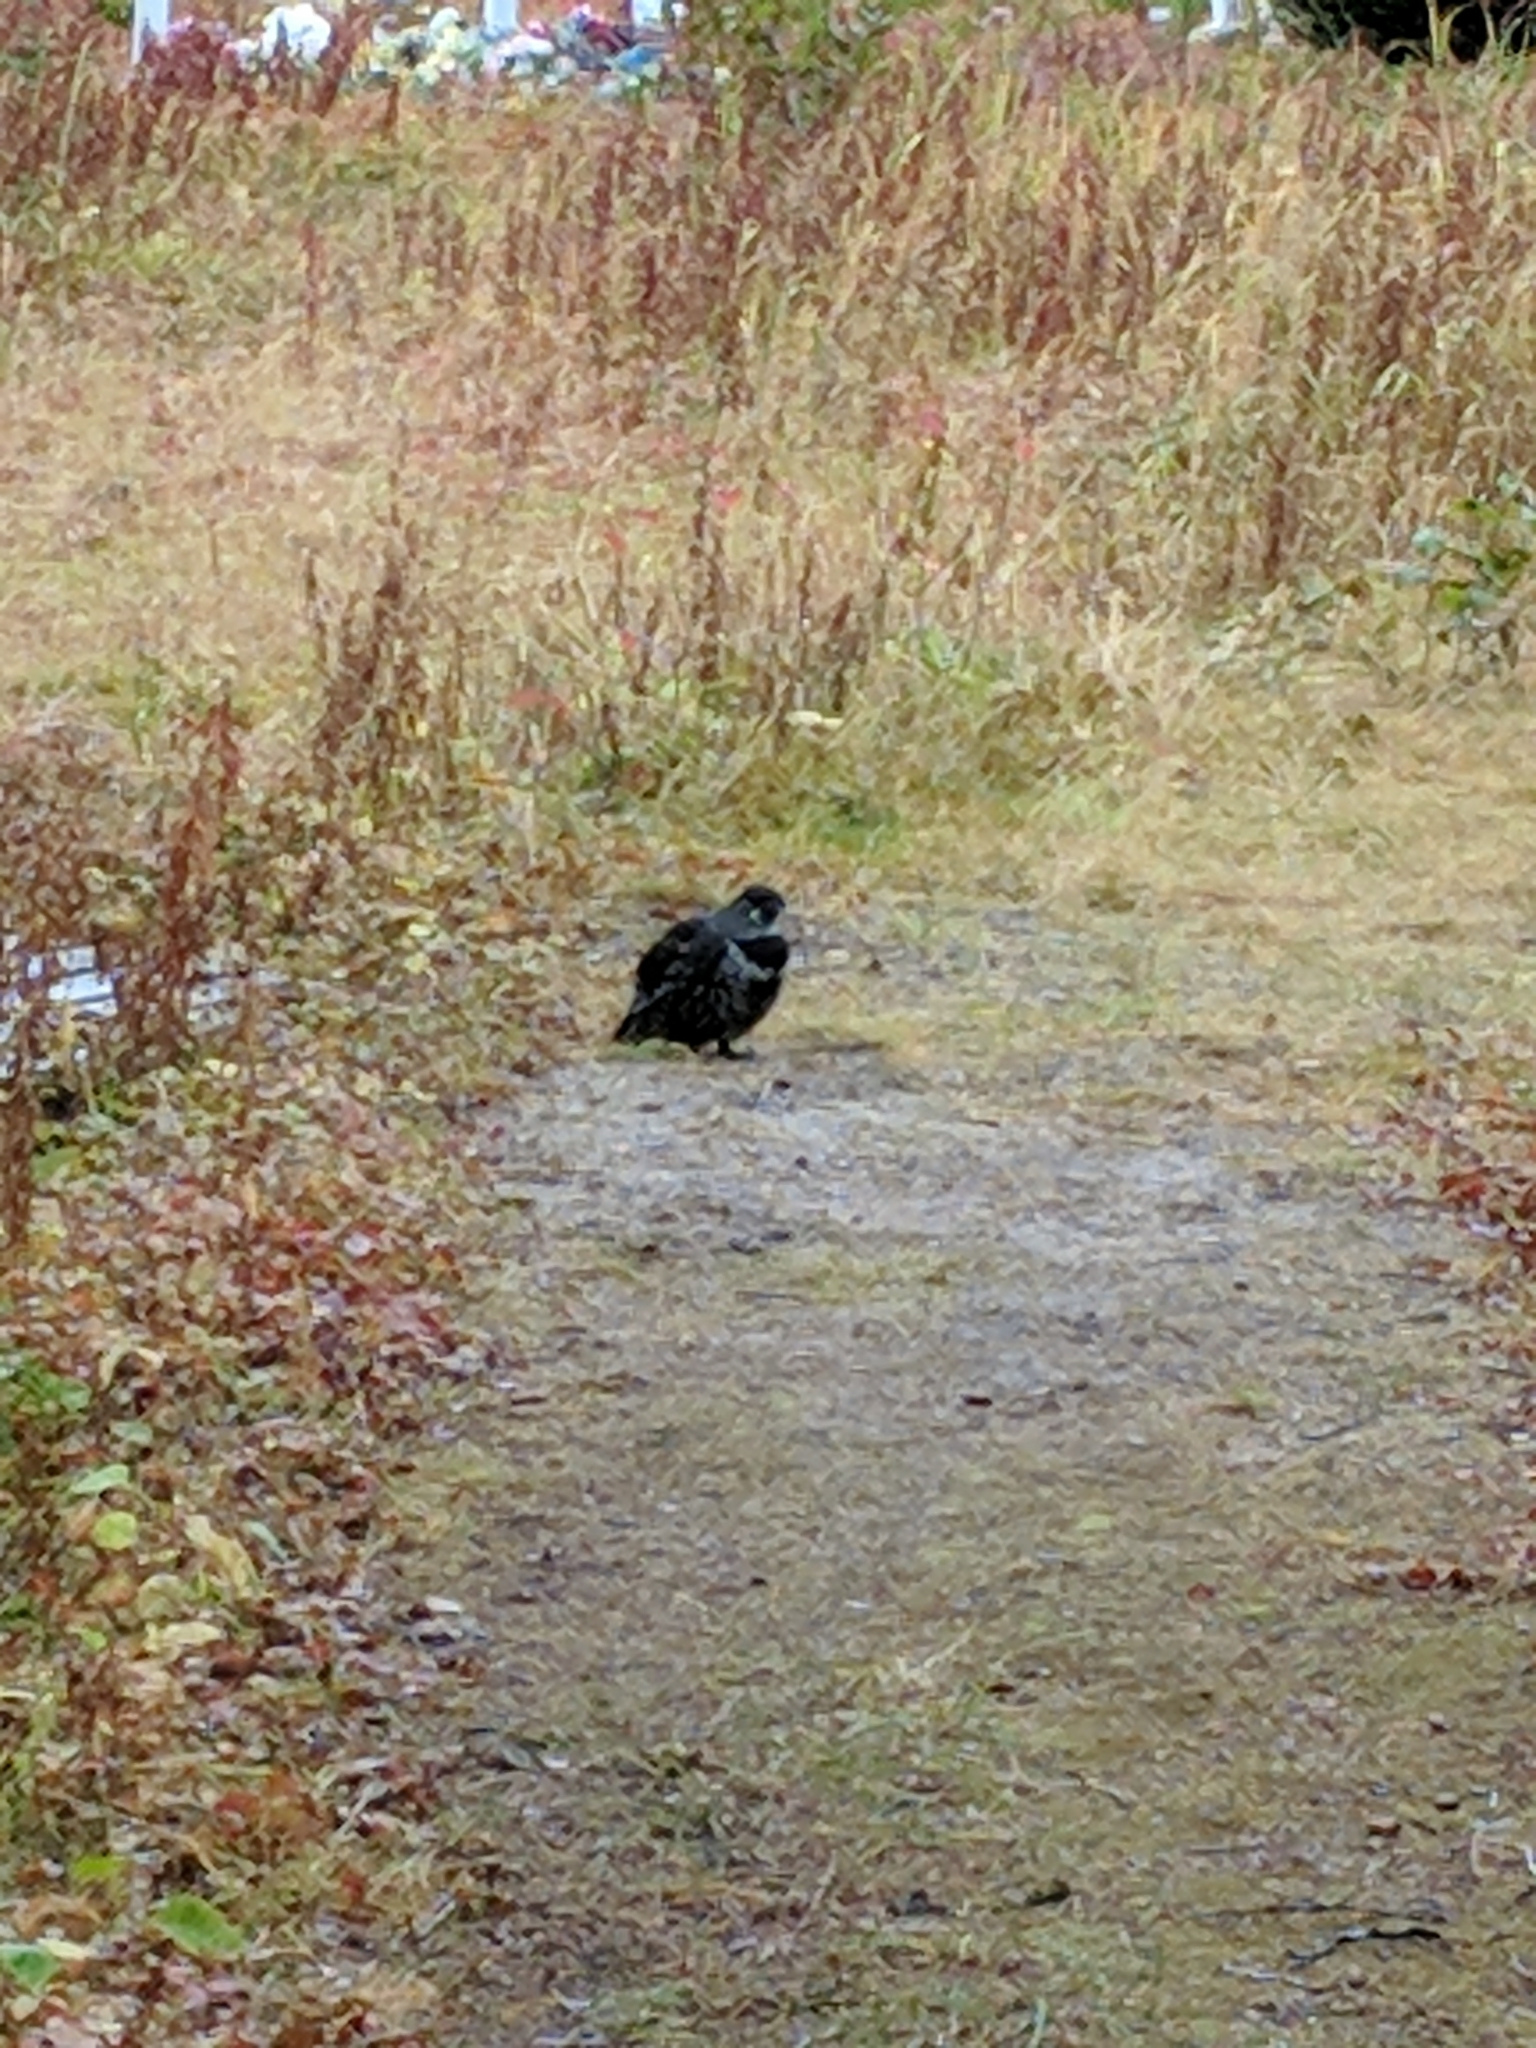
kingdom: Animalia
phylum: Chordata
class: Aves
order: Galliformes
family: Phasianidae
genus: Canachites
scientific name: Canachites canadensis
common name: Spruce grouse
